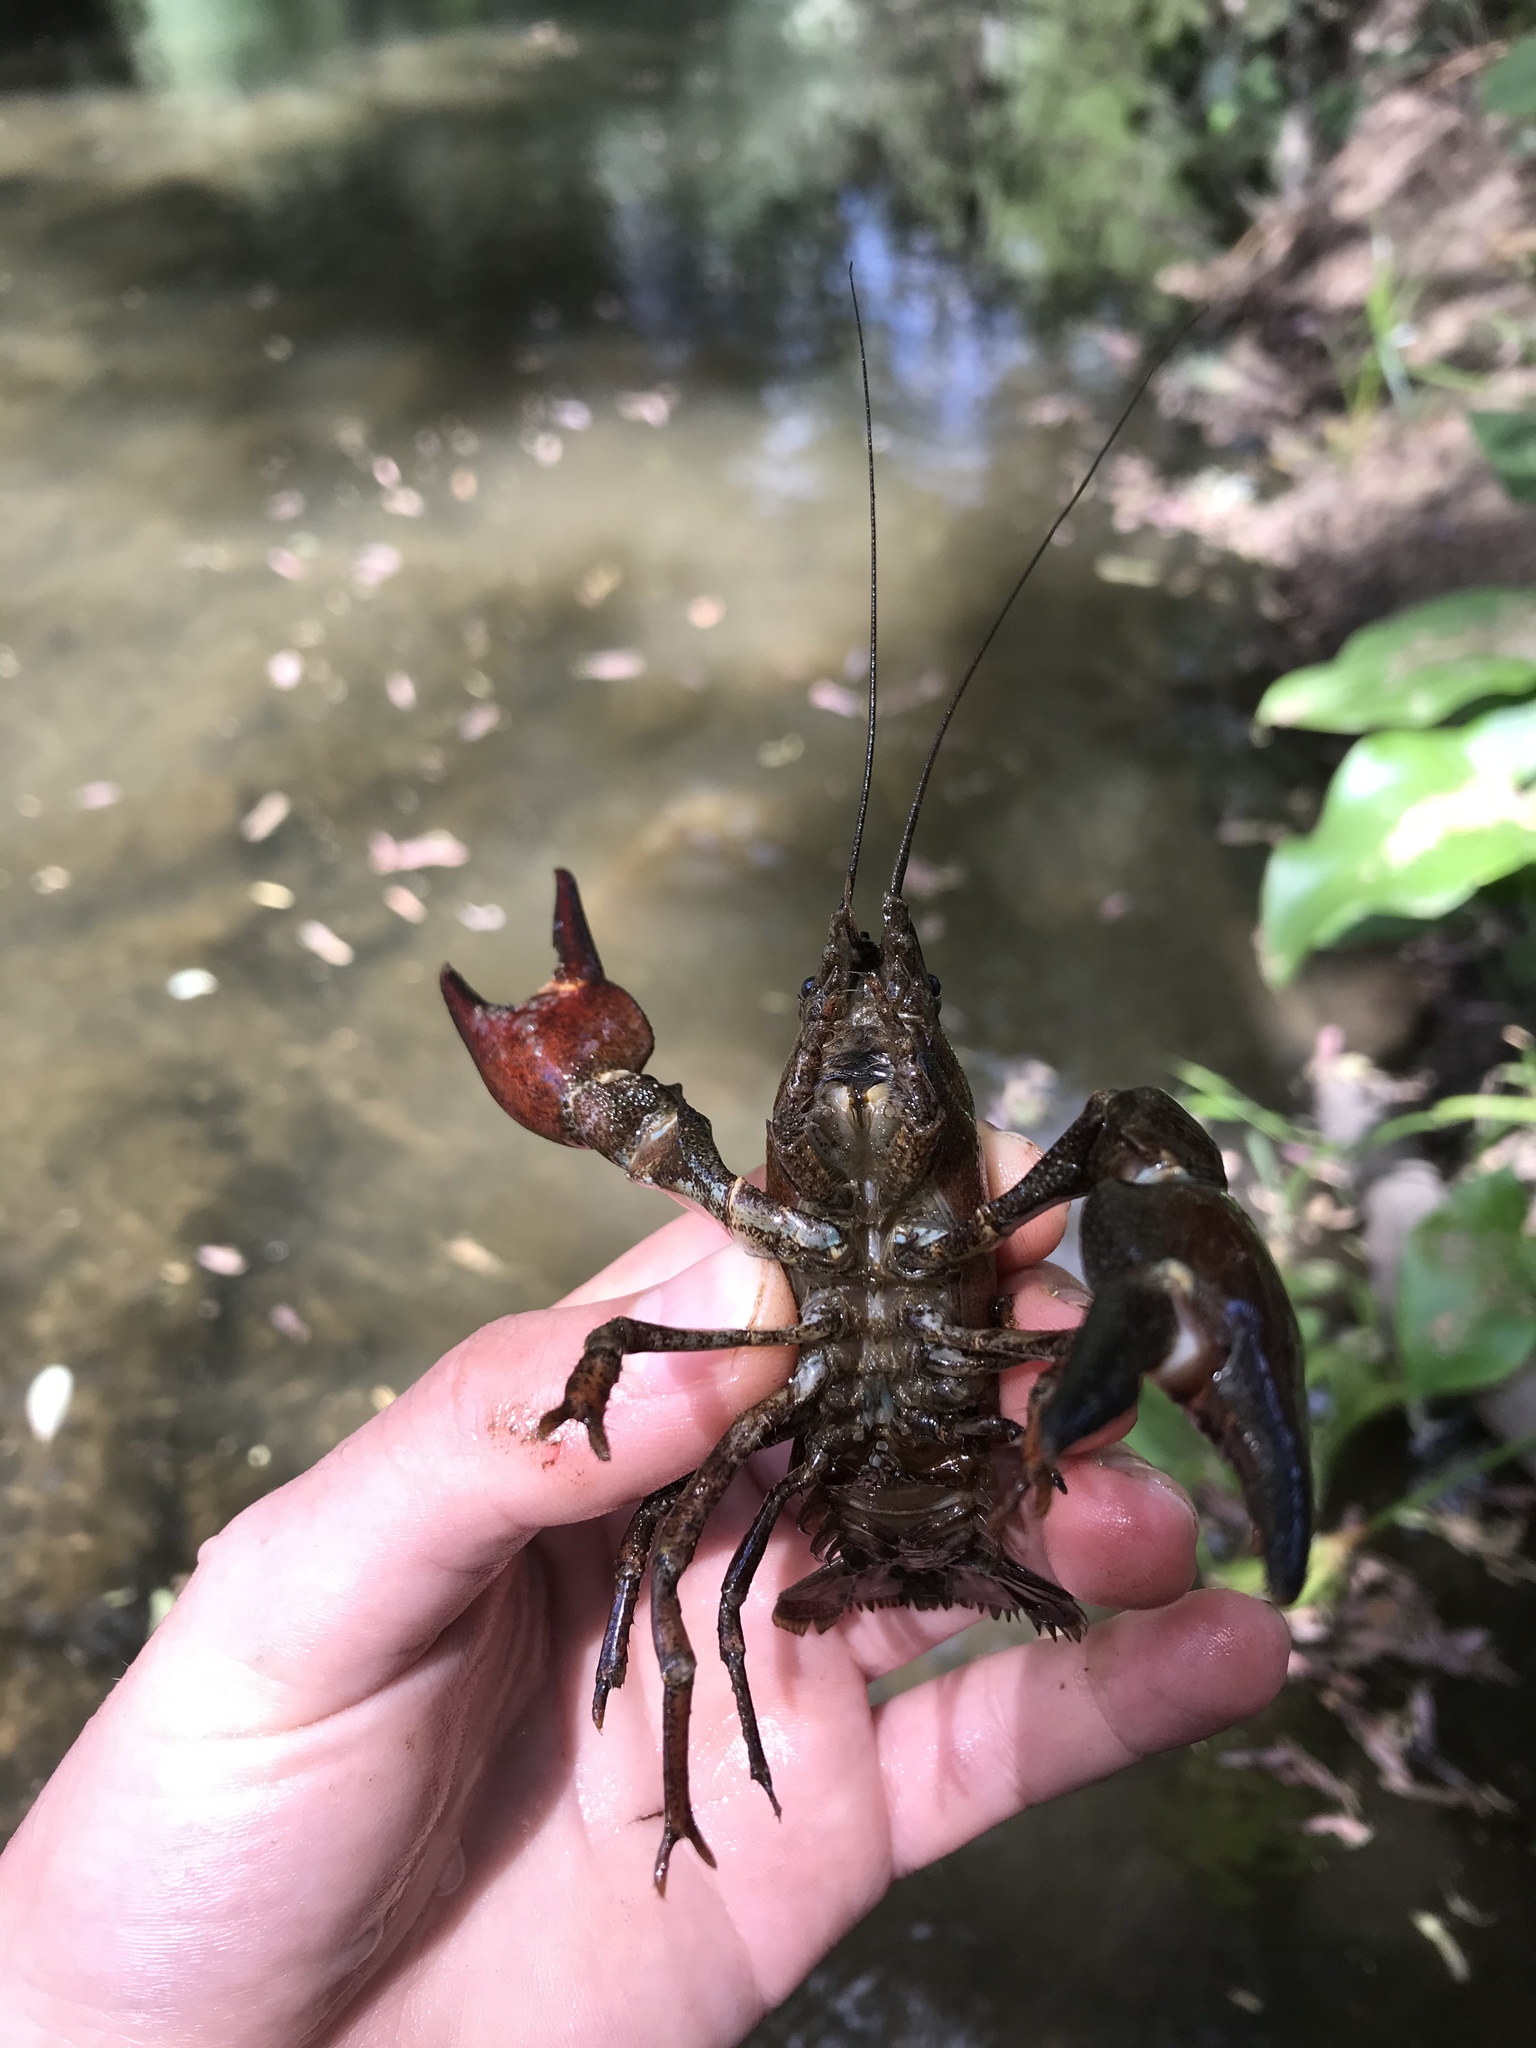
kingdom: Animalia
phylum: Arthropoda
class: Malacostraca
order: Decapoda
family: Astacidae
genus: Pacifastacus
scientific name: Pacifastacus leniusculus
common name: Signal crayfish
